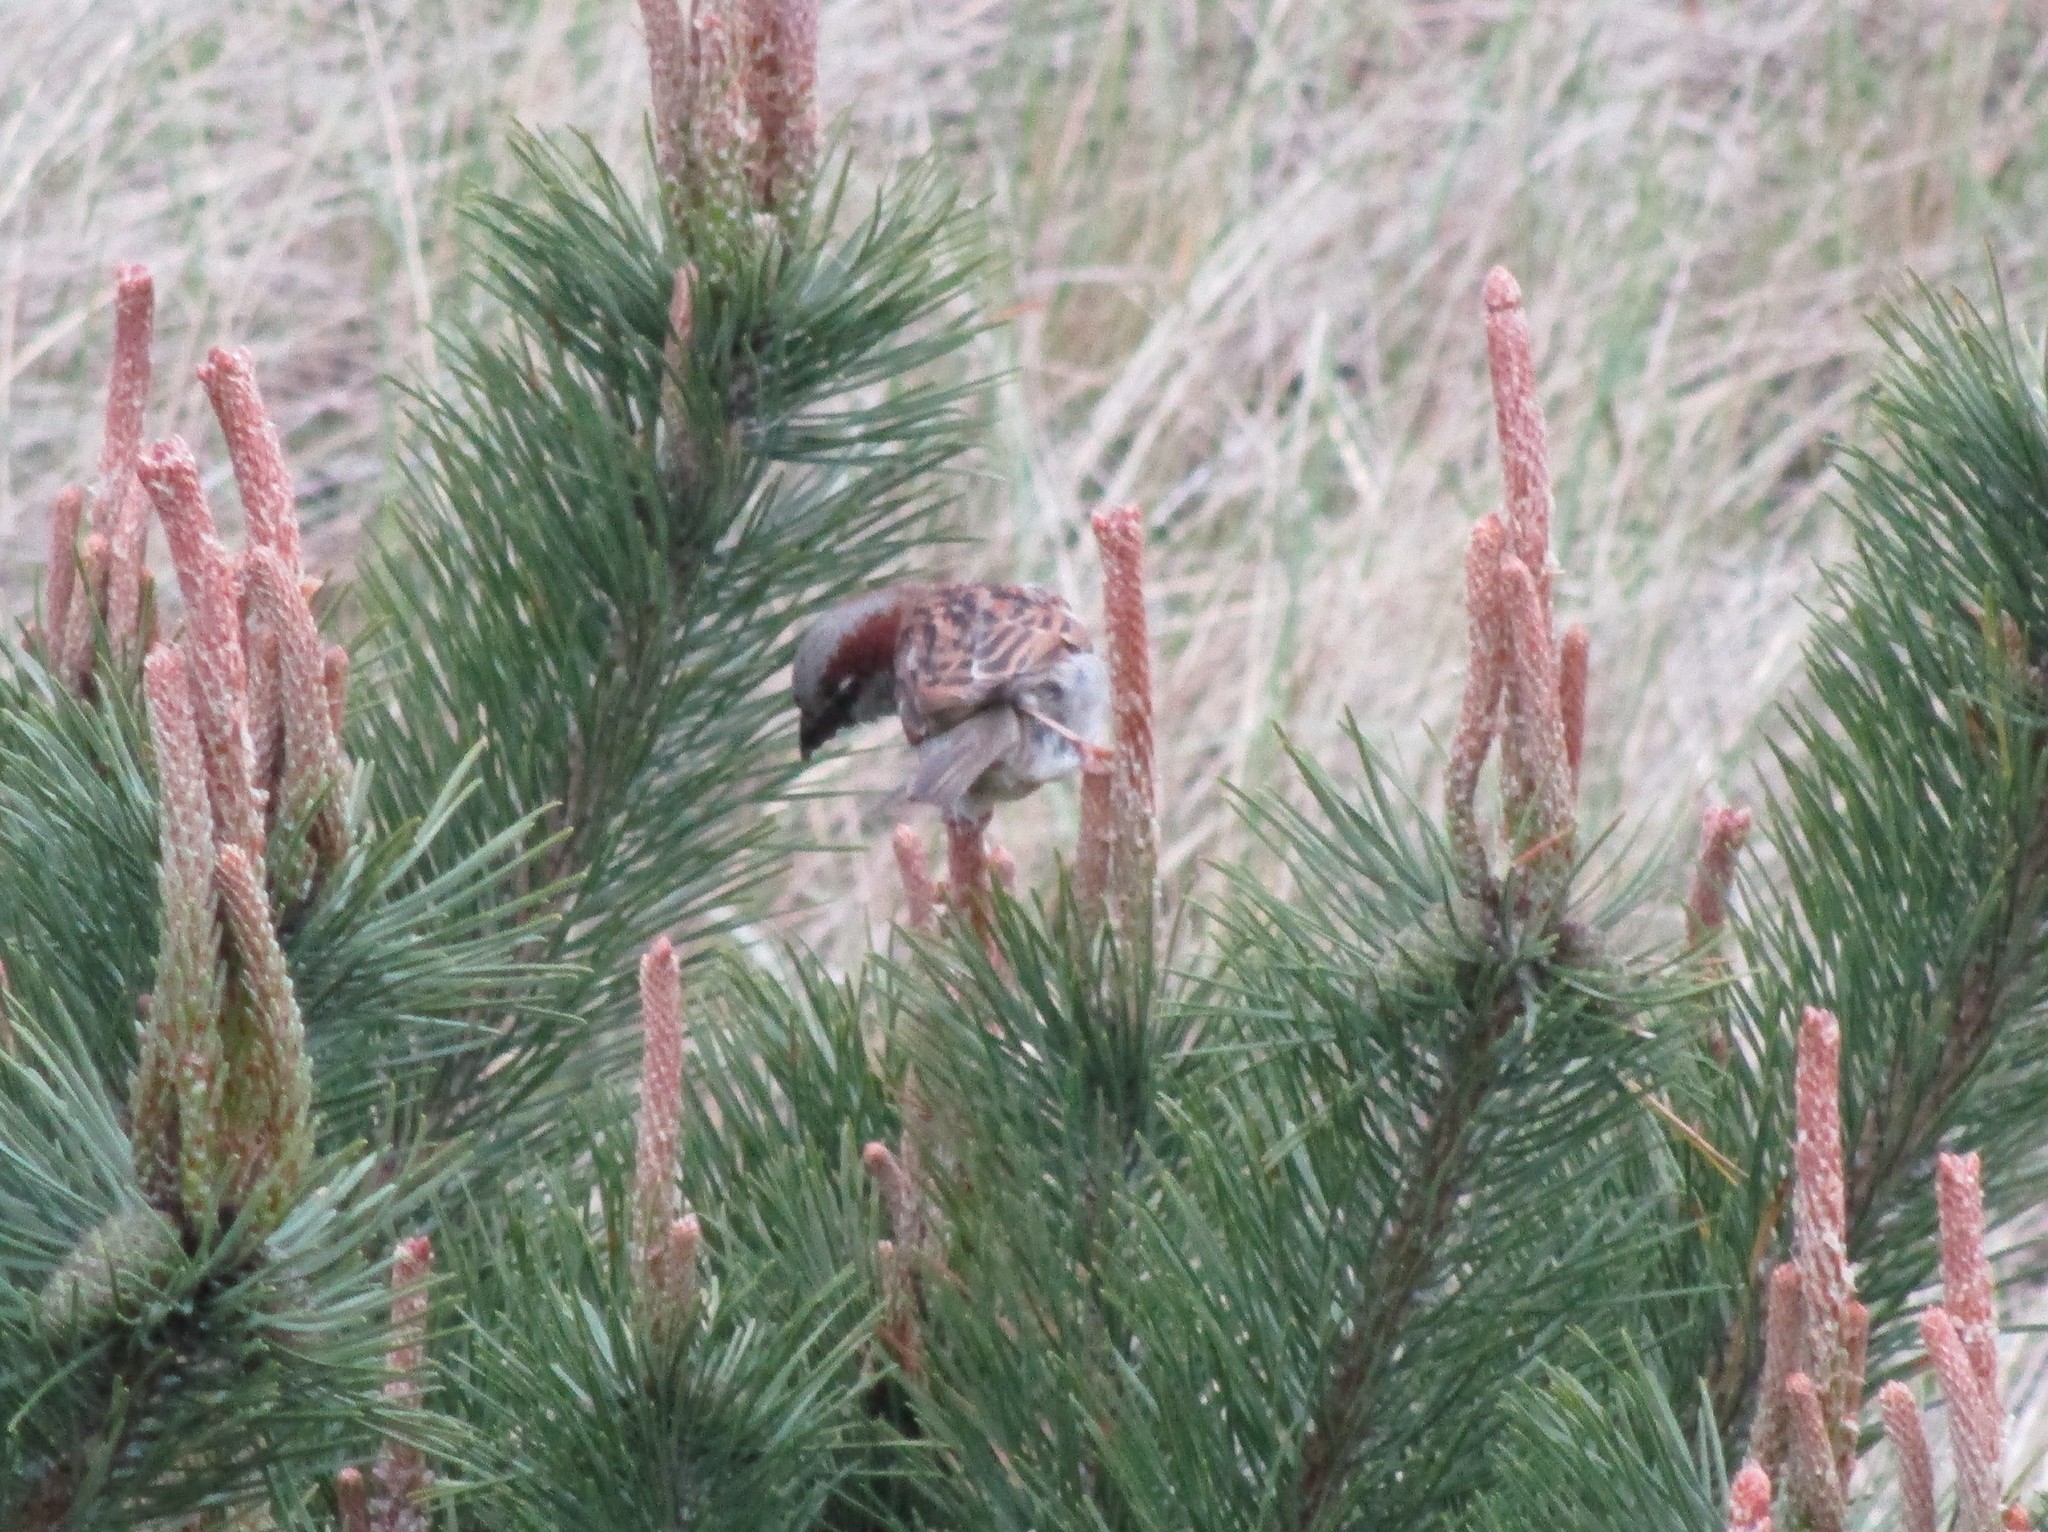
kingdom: Animalia
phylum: Chordata
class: Aves
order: Passeriformes
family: Passeridae
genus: Passer
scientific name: Passer domesticus
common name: House sparrow
